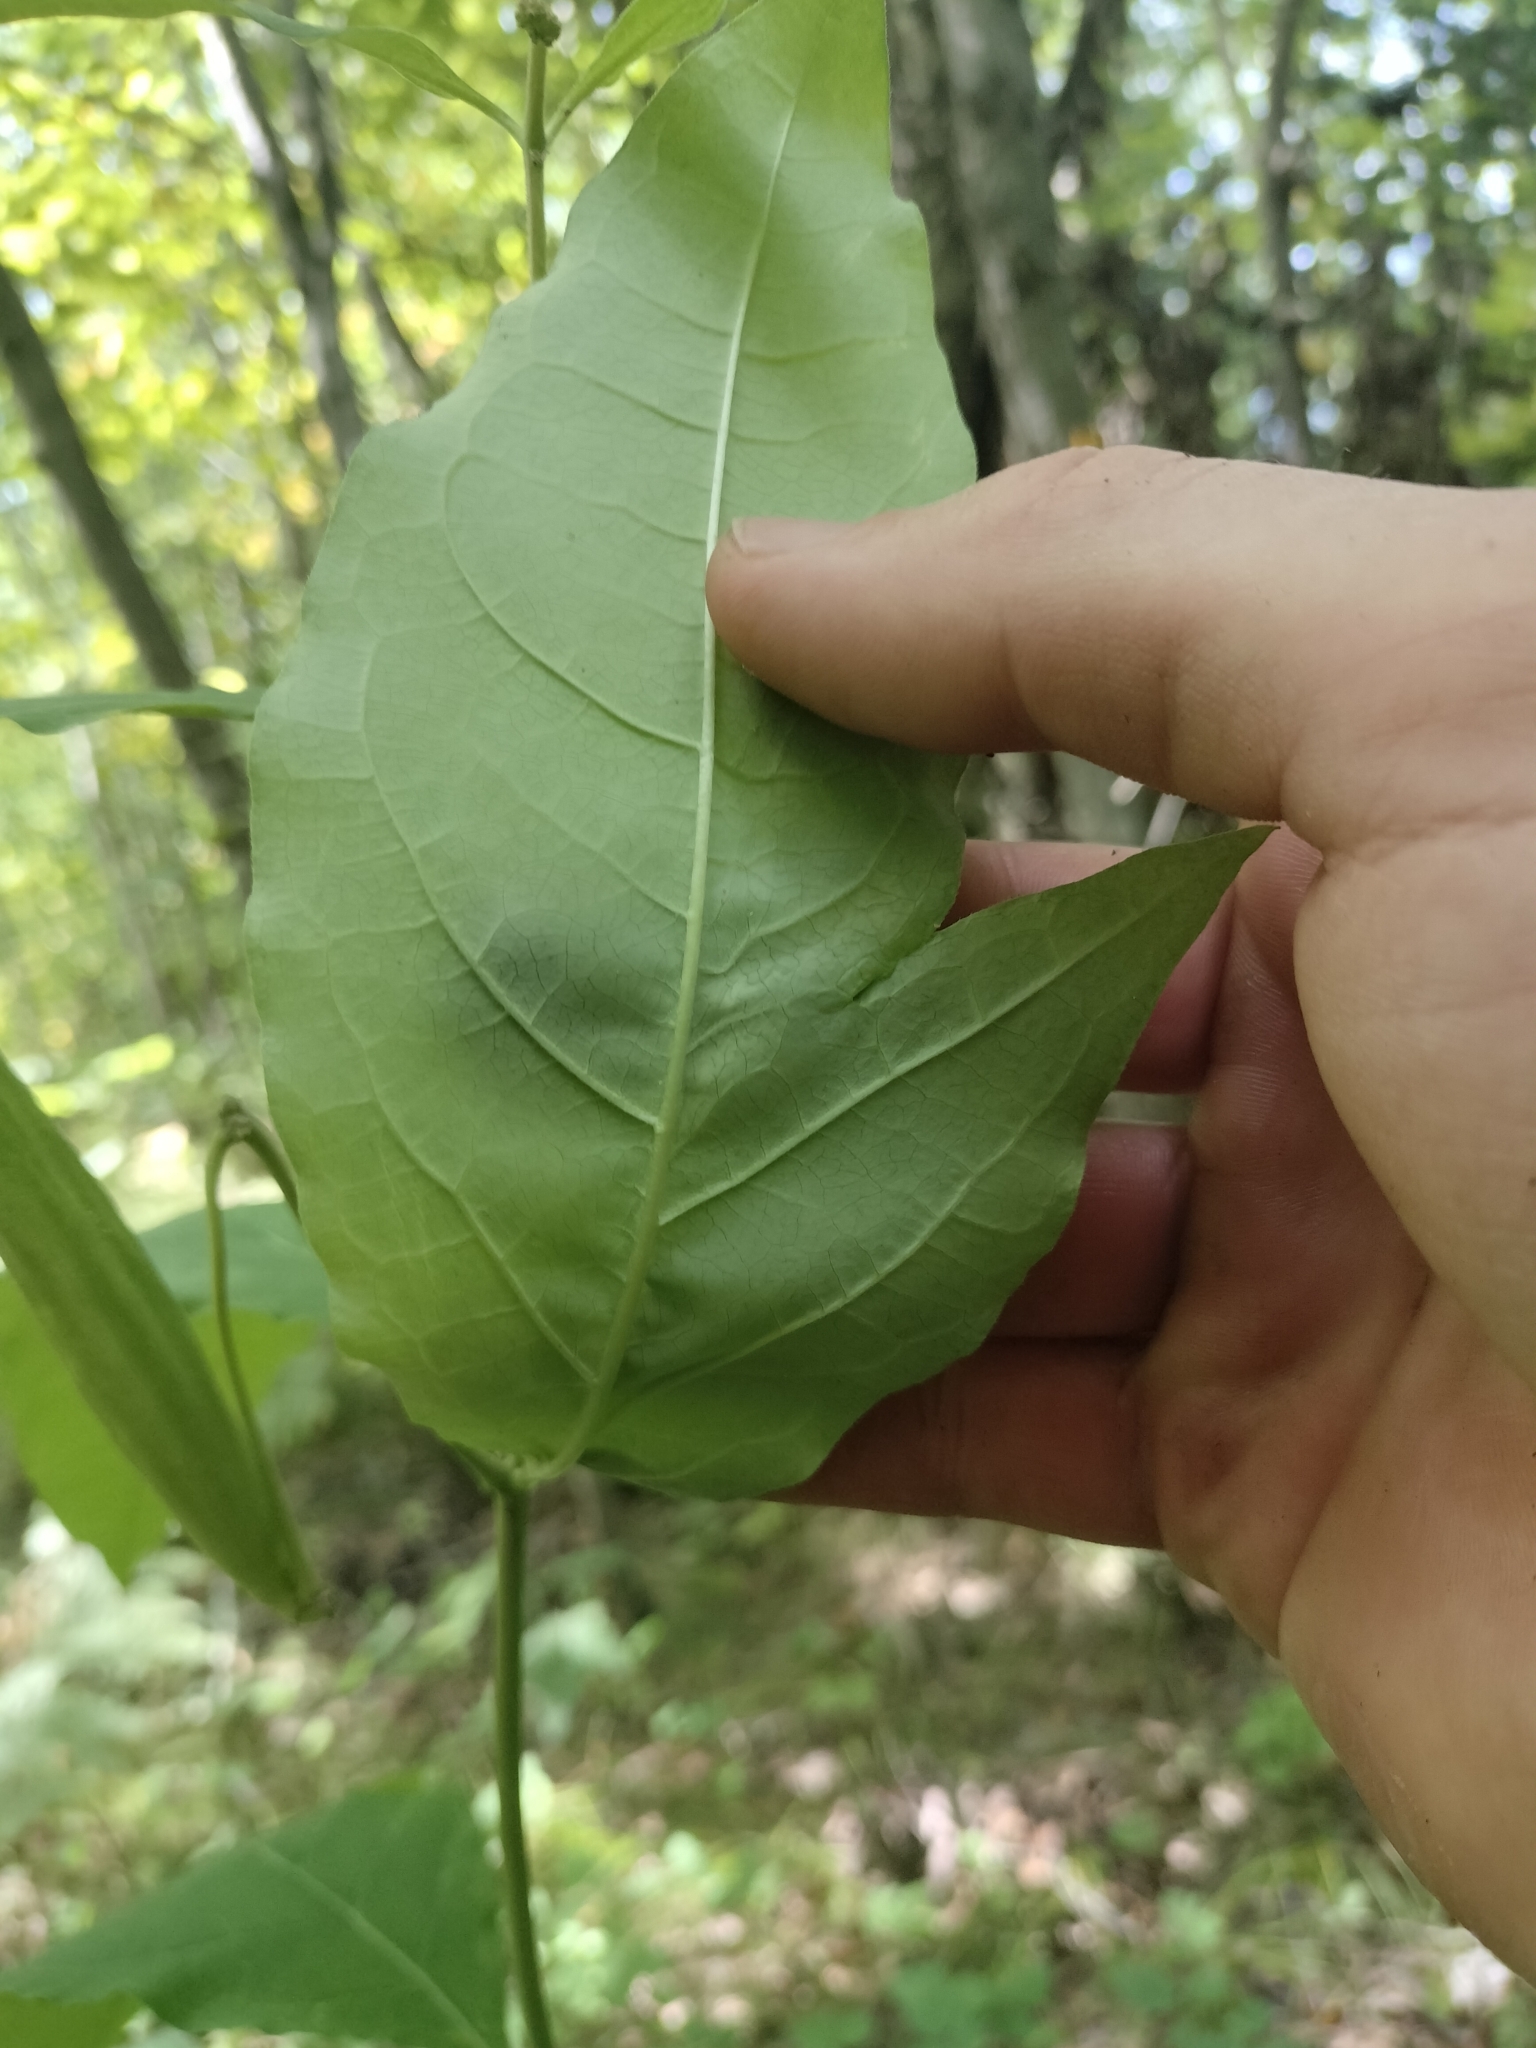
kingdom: Plantae
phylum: Tracheophyta
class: Magnoliopsida
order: Gentianales
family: Apocynaceae
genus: Asclepias
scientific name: Asclepias exaltata
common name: Poke milkweed
